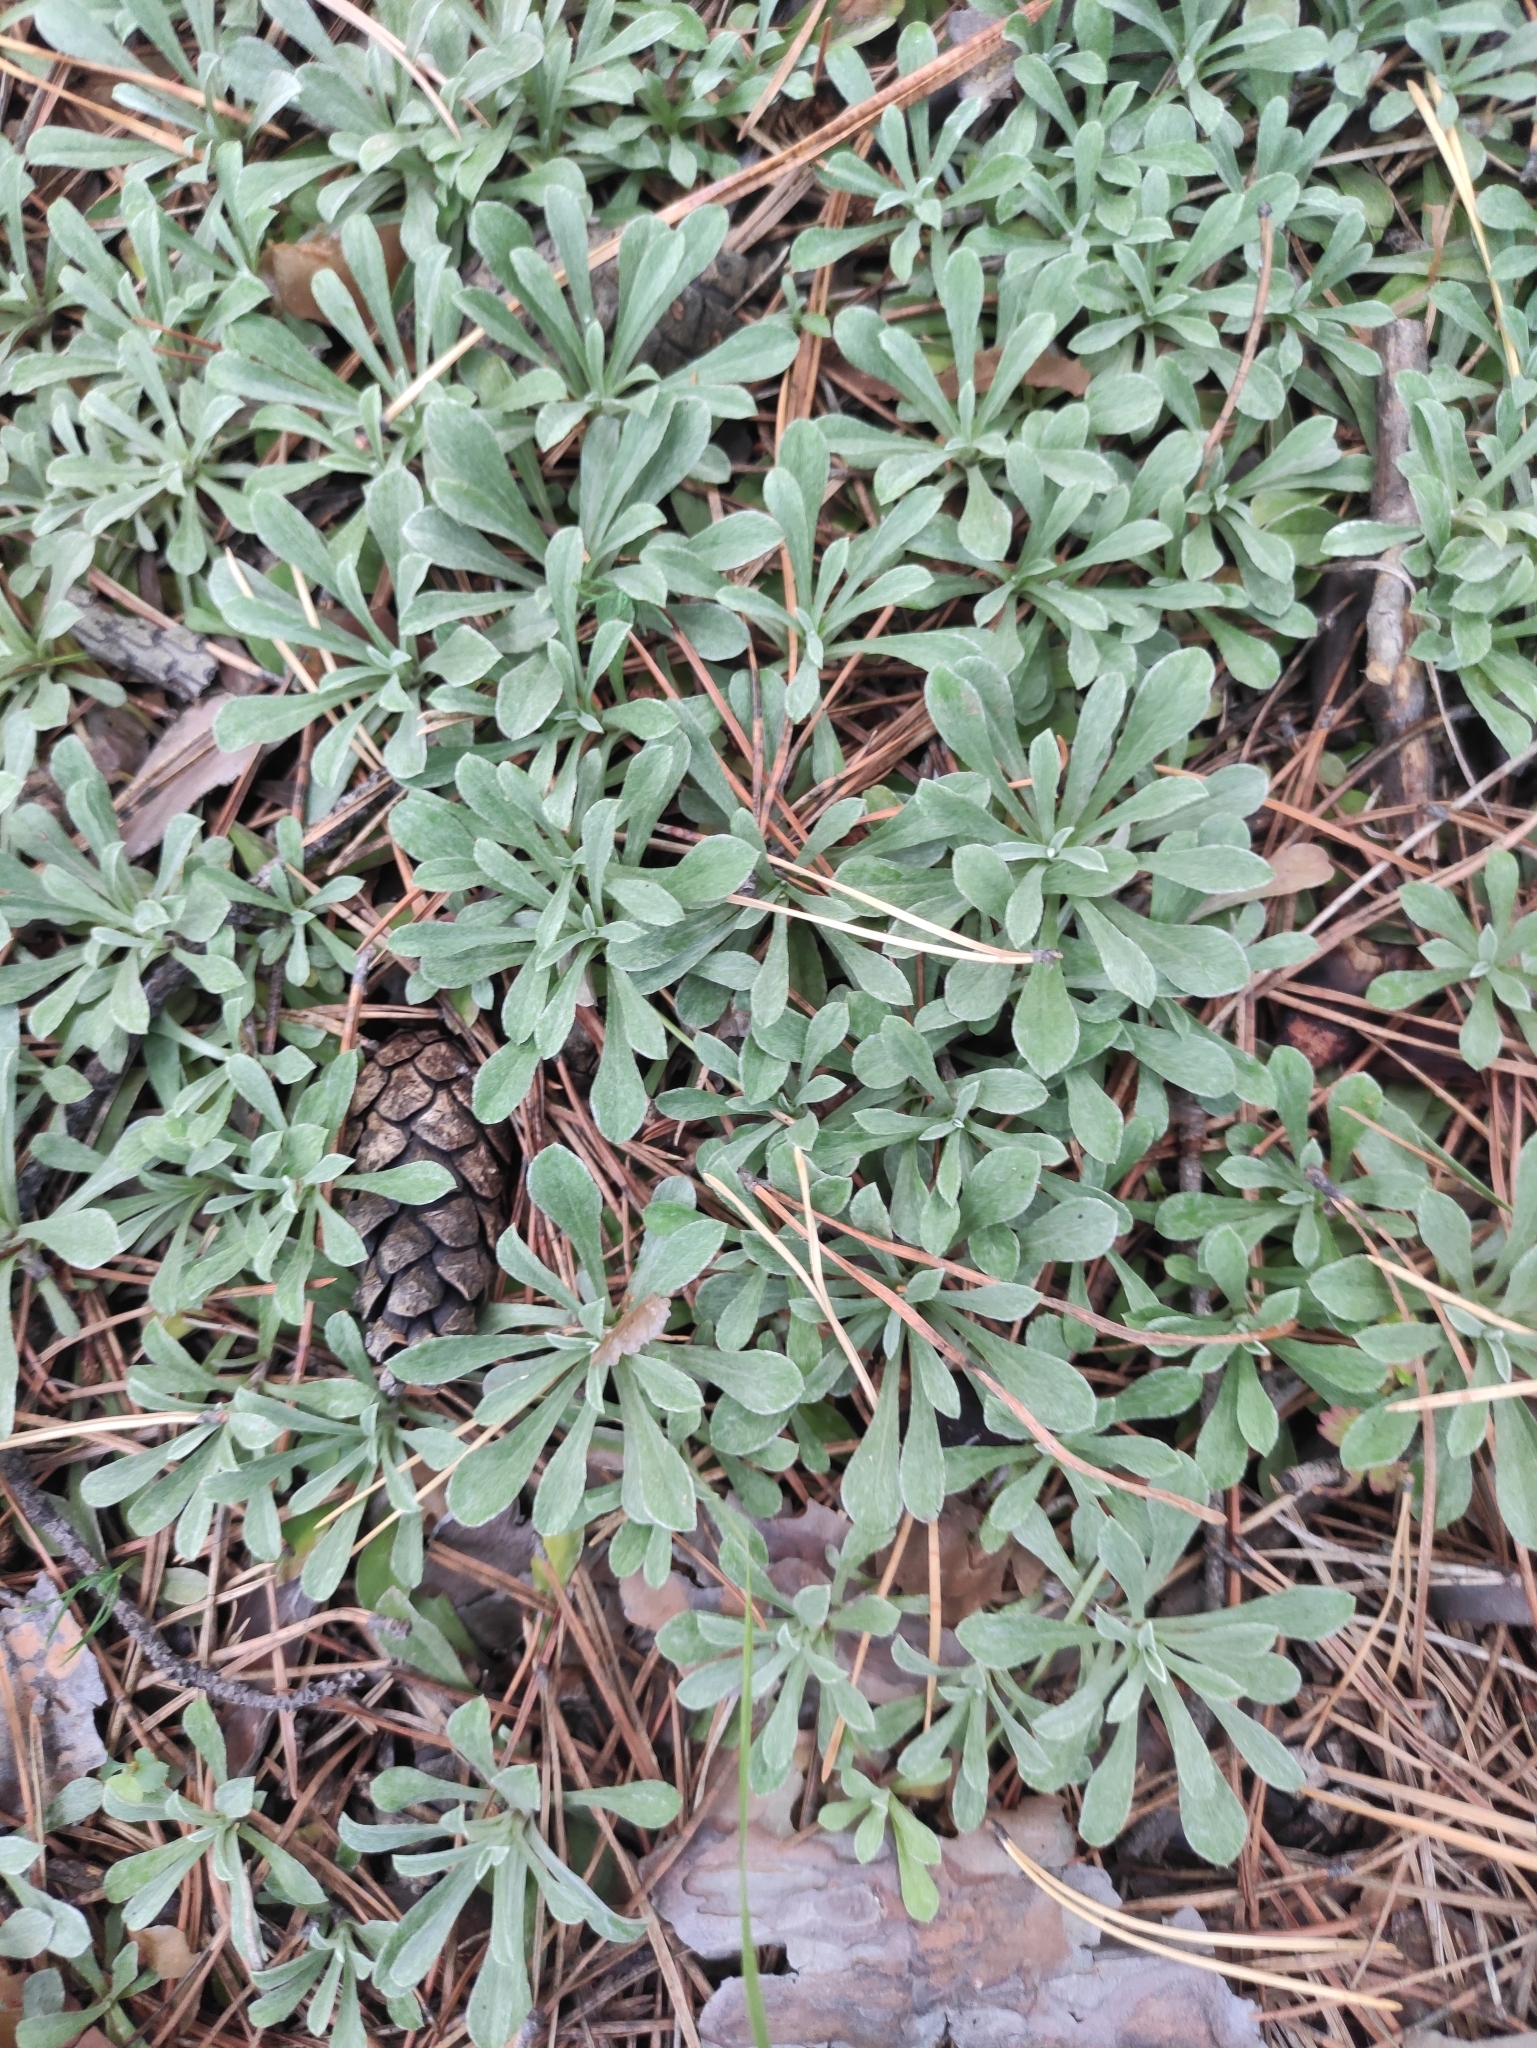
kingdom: Plantae
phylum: Tracheophyta
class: Magnoliopsida
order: Asterales
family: Asteraceae
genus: Antennaria
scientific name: Antennaria dioica
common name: Mountain everlasting
